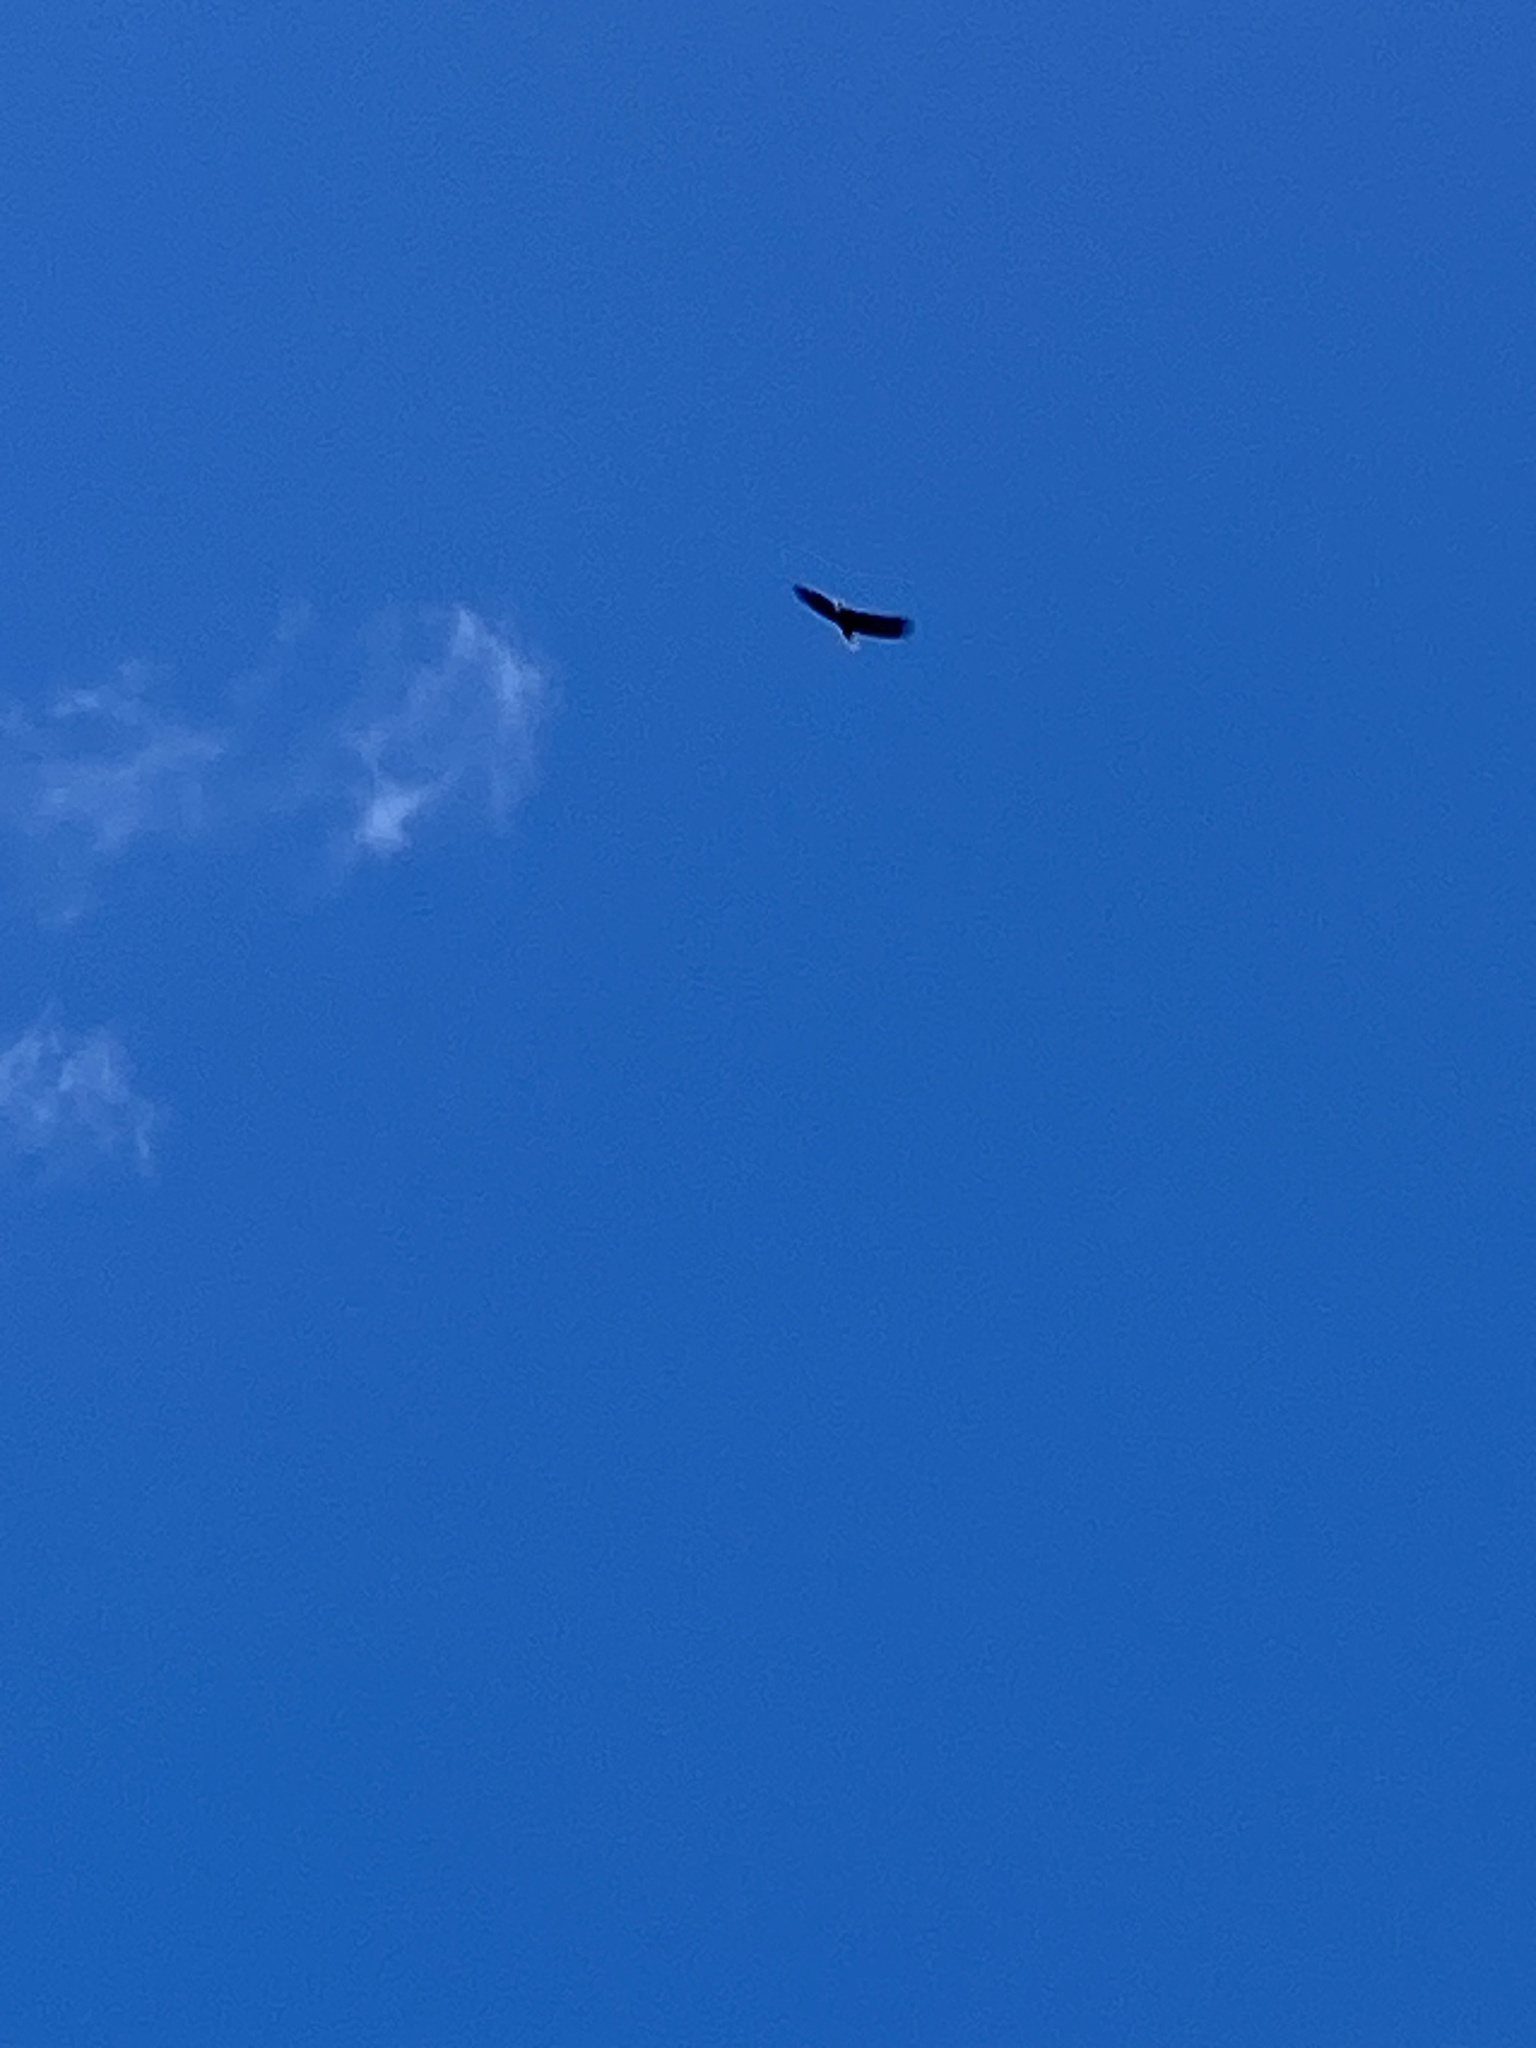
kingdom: Animalia
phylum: Chordata
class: Aves
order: Accipitriformes
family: Accipitridae
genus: Haliaeetus
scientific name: Haliaeetus leucocephalus
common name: Bald eagle
